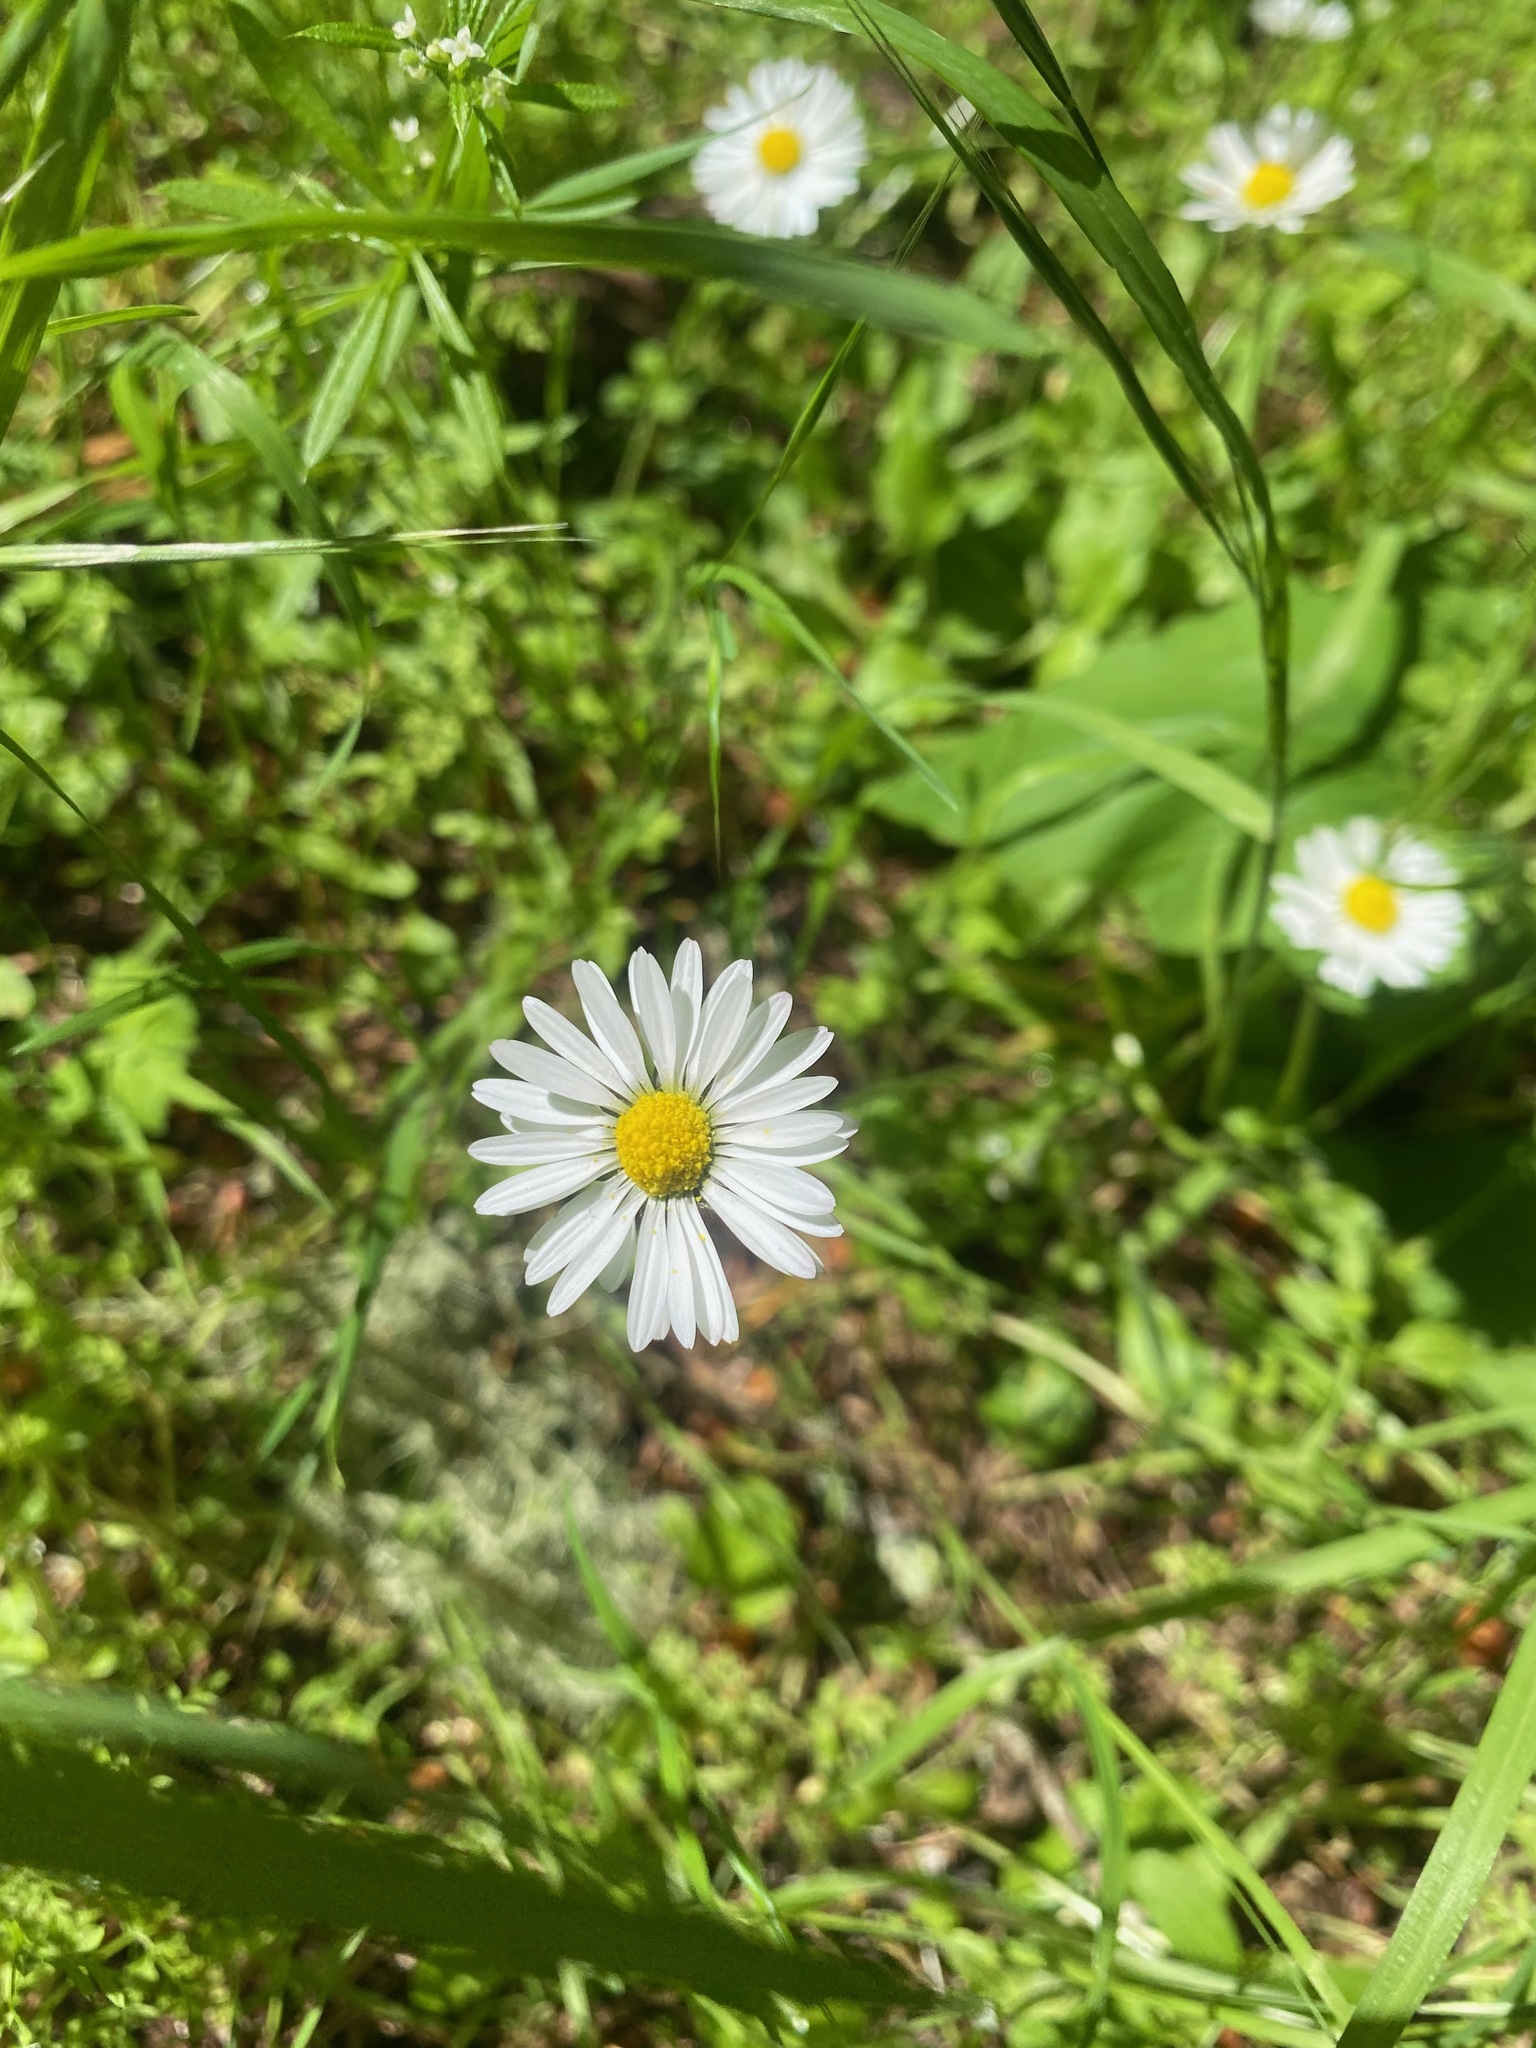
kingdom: Plantae
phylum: Tracheophyta
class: Magnoliopsida
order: Asterales
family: Asteraceae
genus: Bellis
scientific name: Bellis perennis
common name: Lawndaisy
